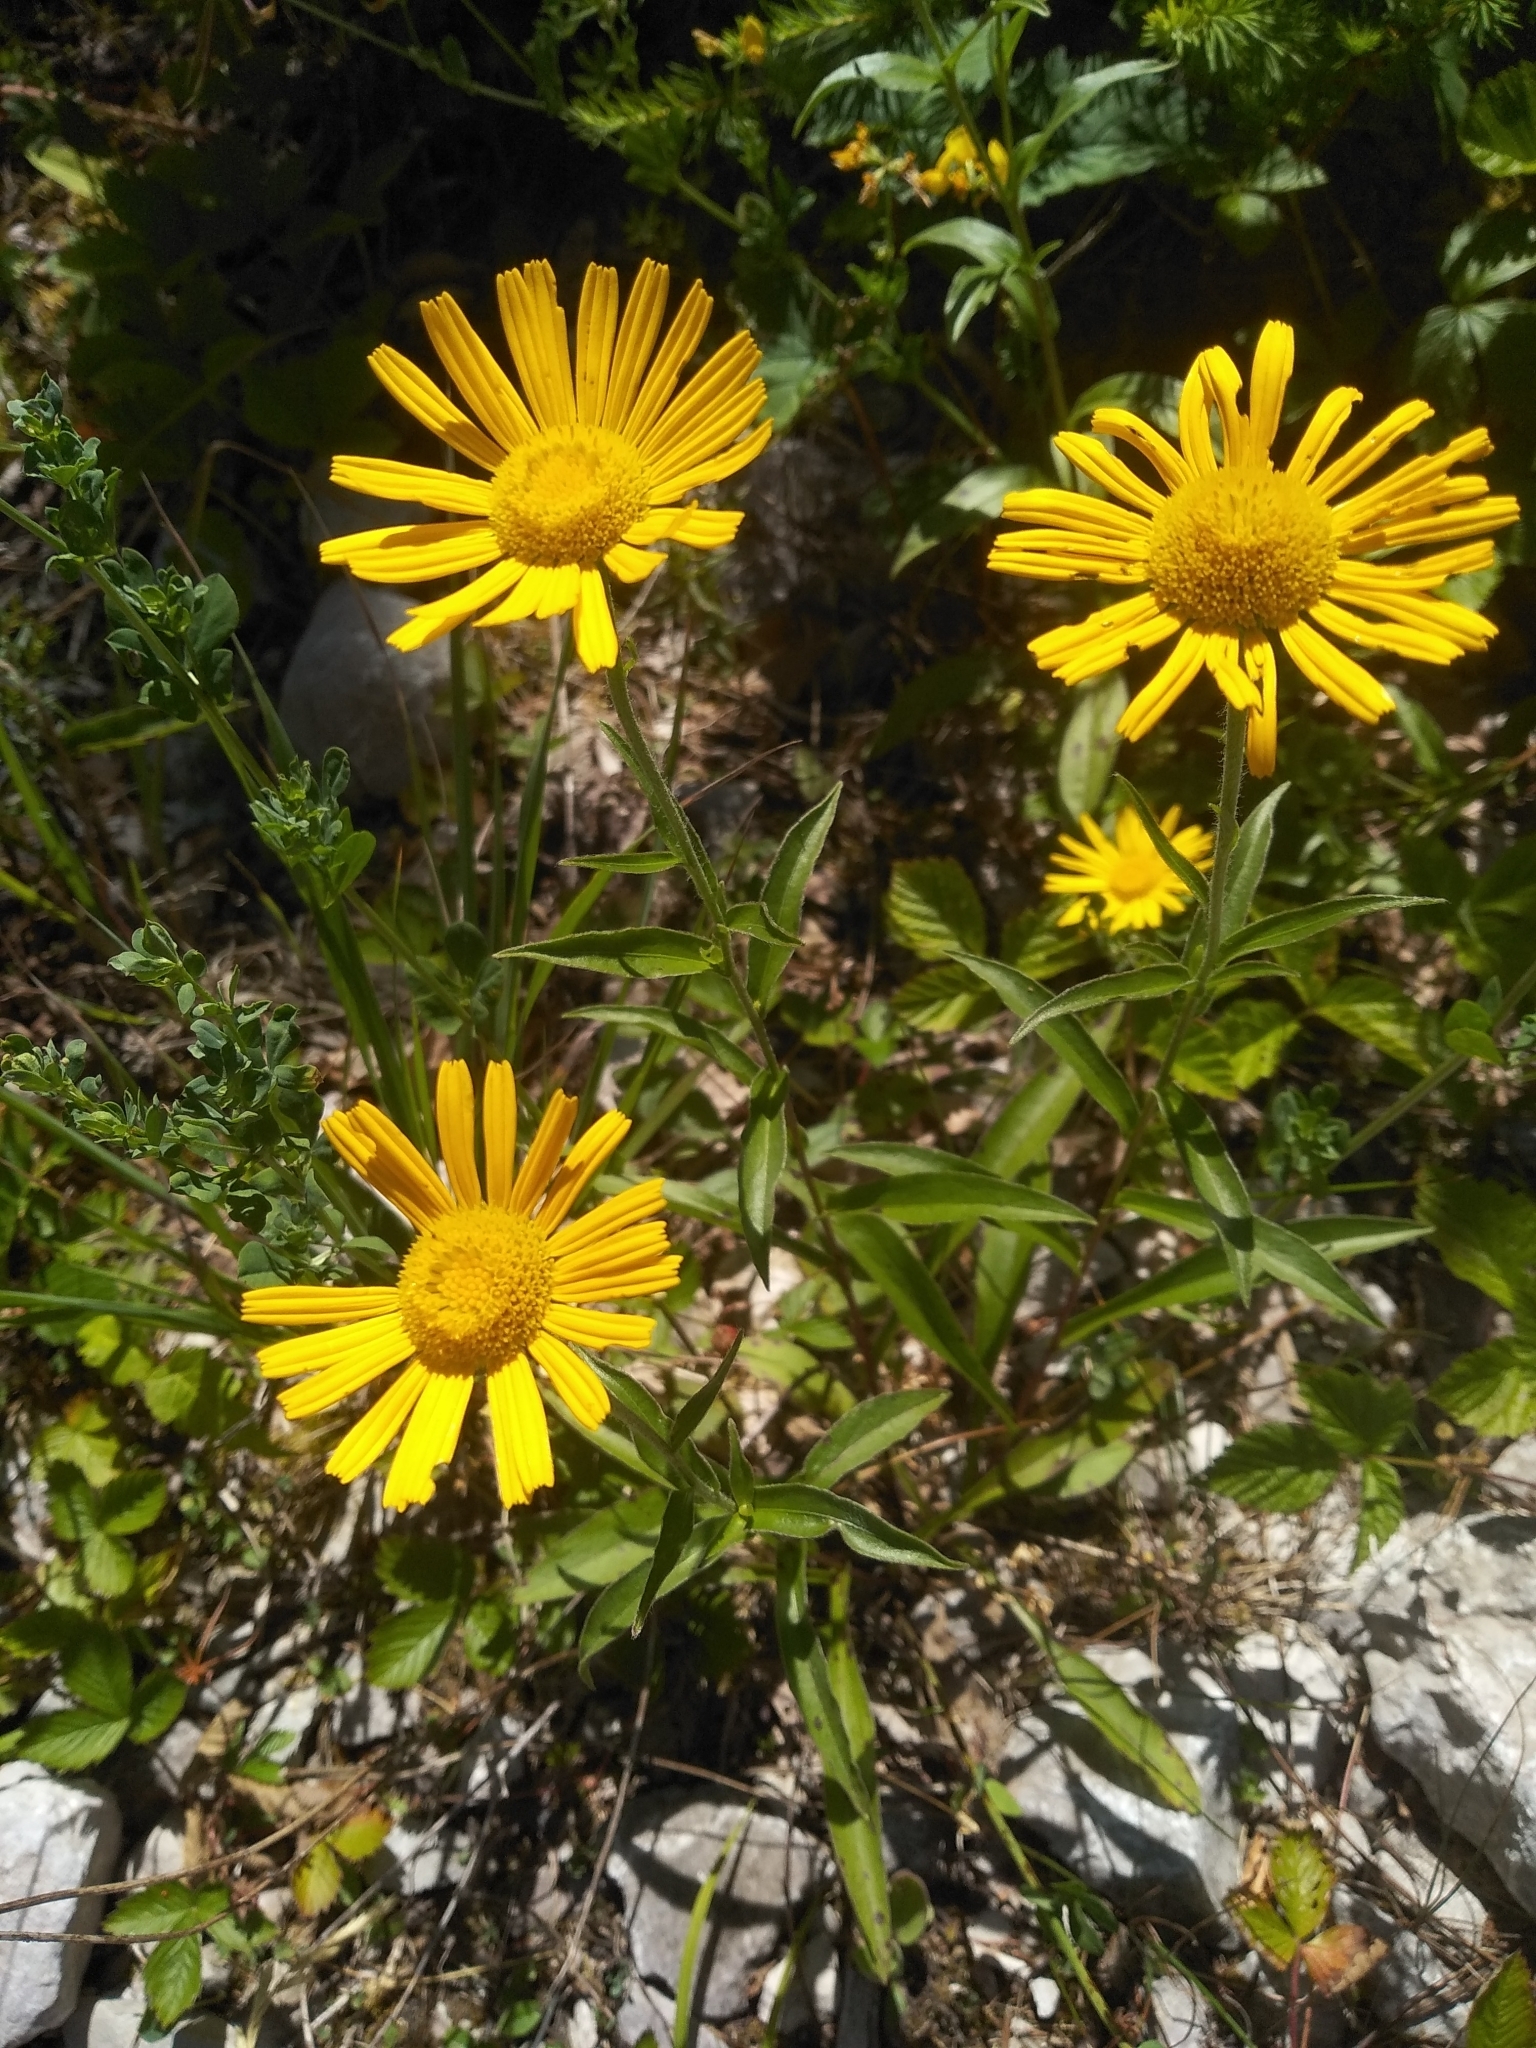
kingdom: Plantae
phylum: Tracheophyta
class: Magnoliopsida
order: Asterales
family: Asteraceae
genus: Buphthalmum
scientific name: Buphthalmum salicifolium
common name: Willow-leaved yellow-oxeye
